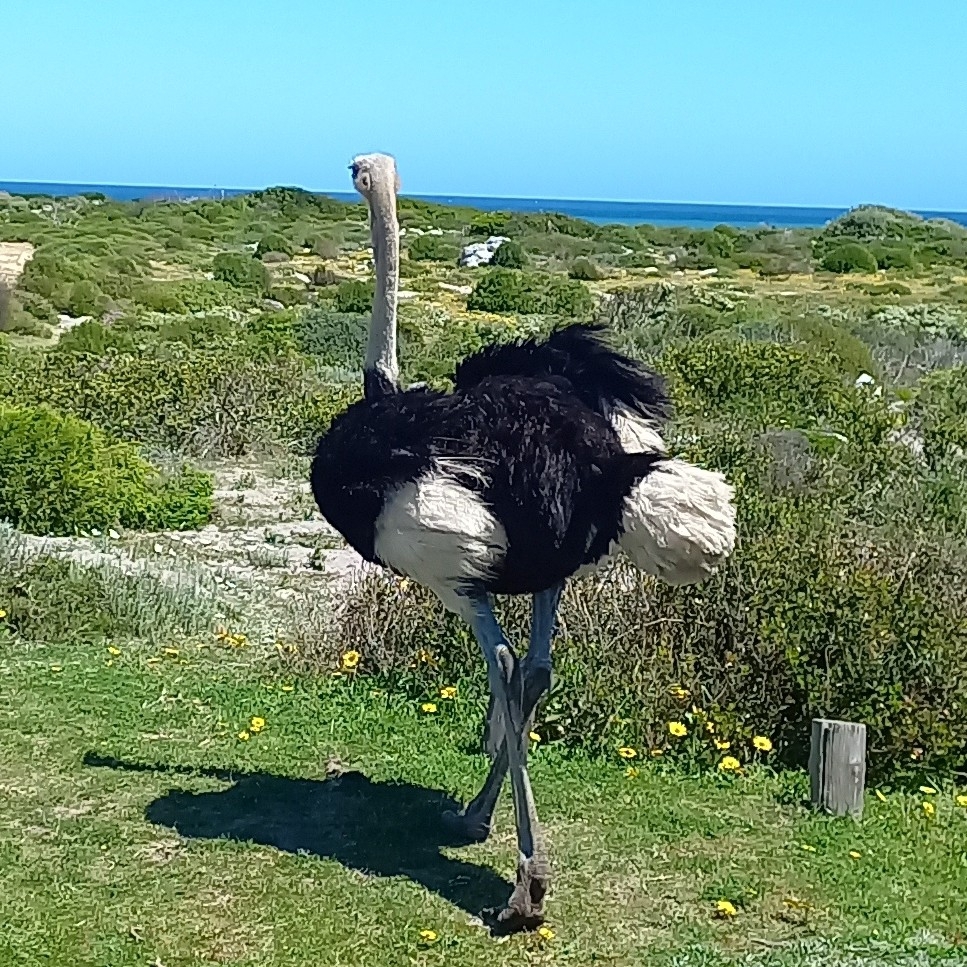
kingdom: Animalia
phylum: Chordata
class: Aves
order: Struthioniformes
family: Struthionidae
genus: Struthio
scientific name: Struthio camelus
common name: Common ostrich
